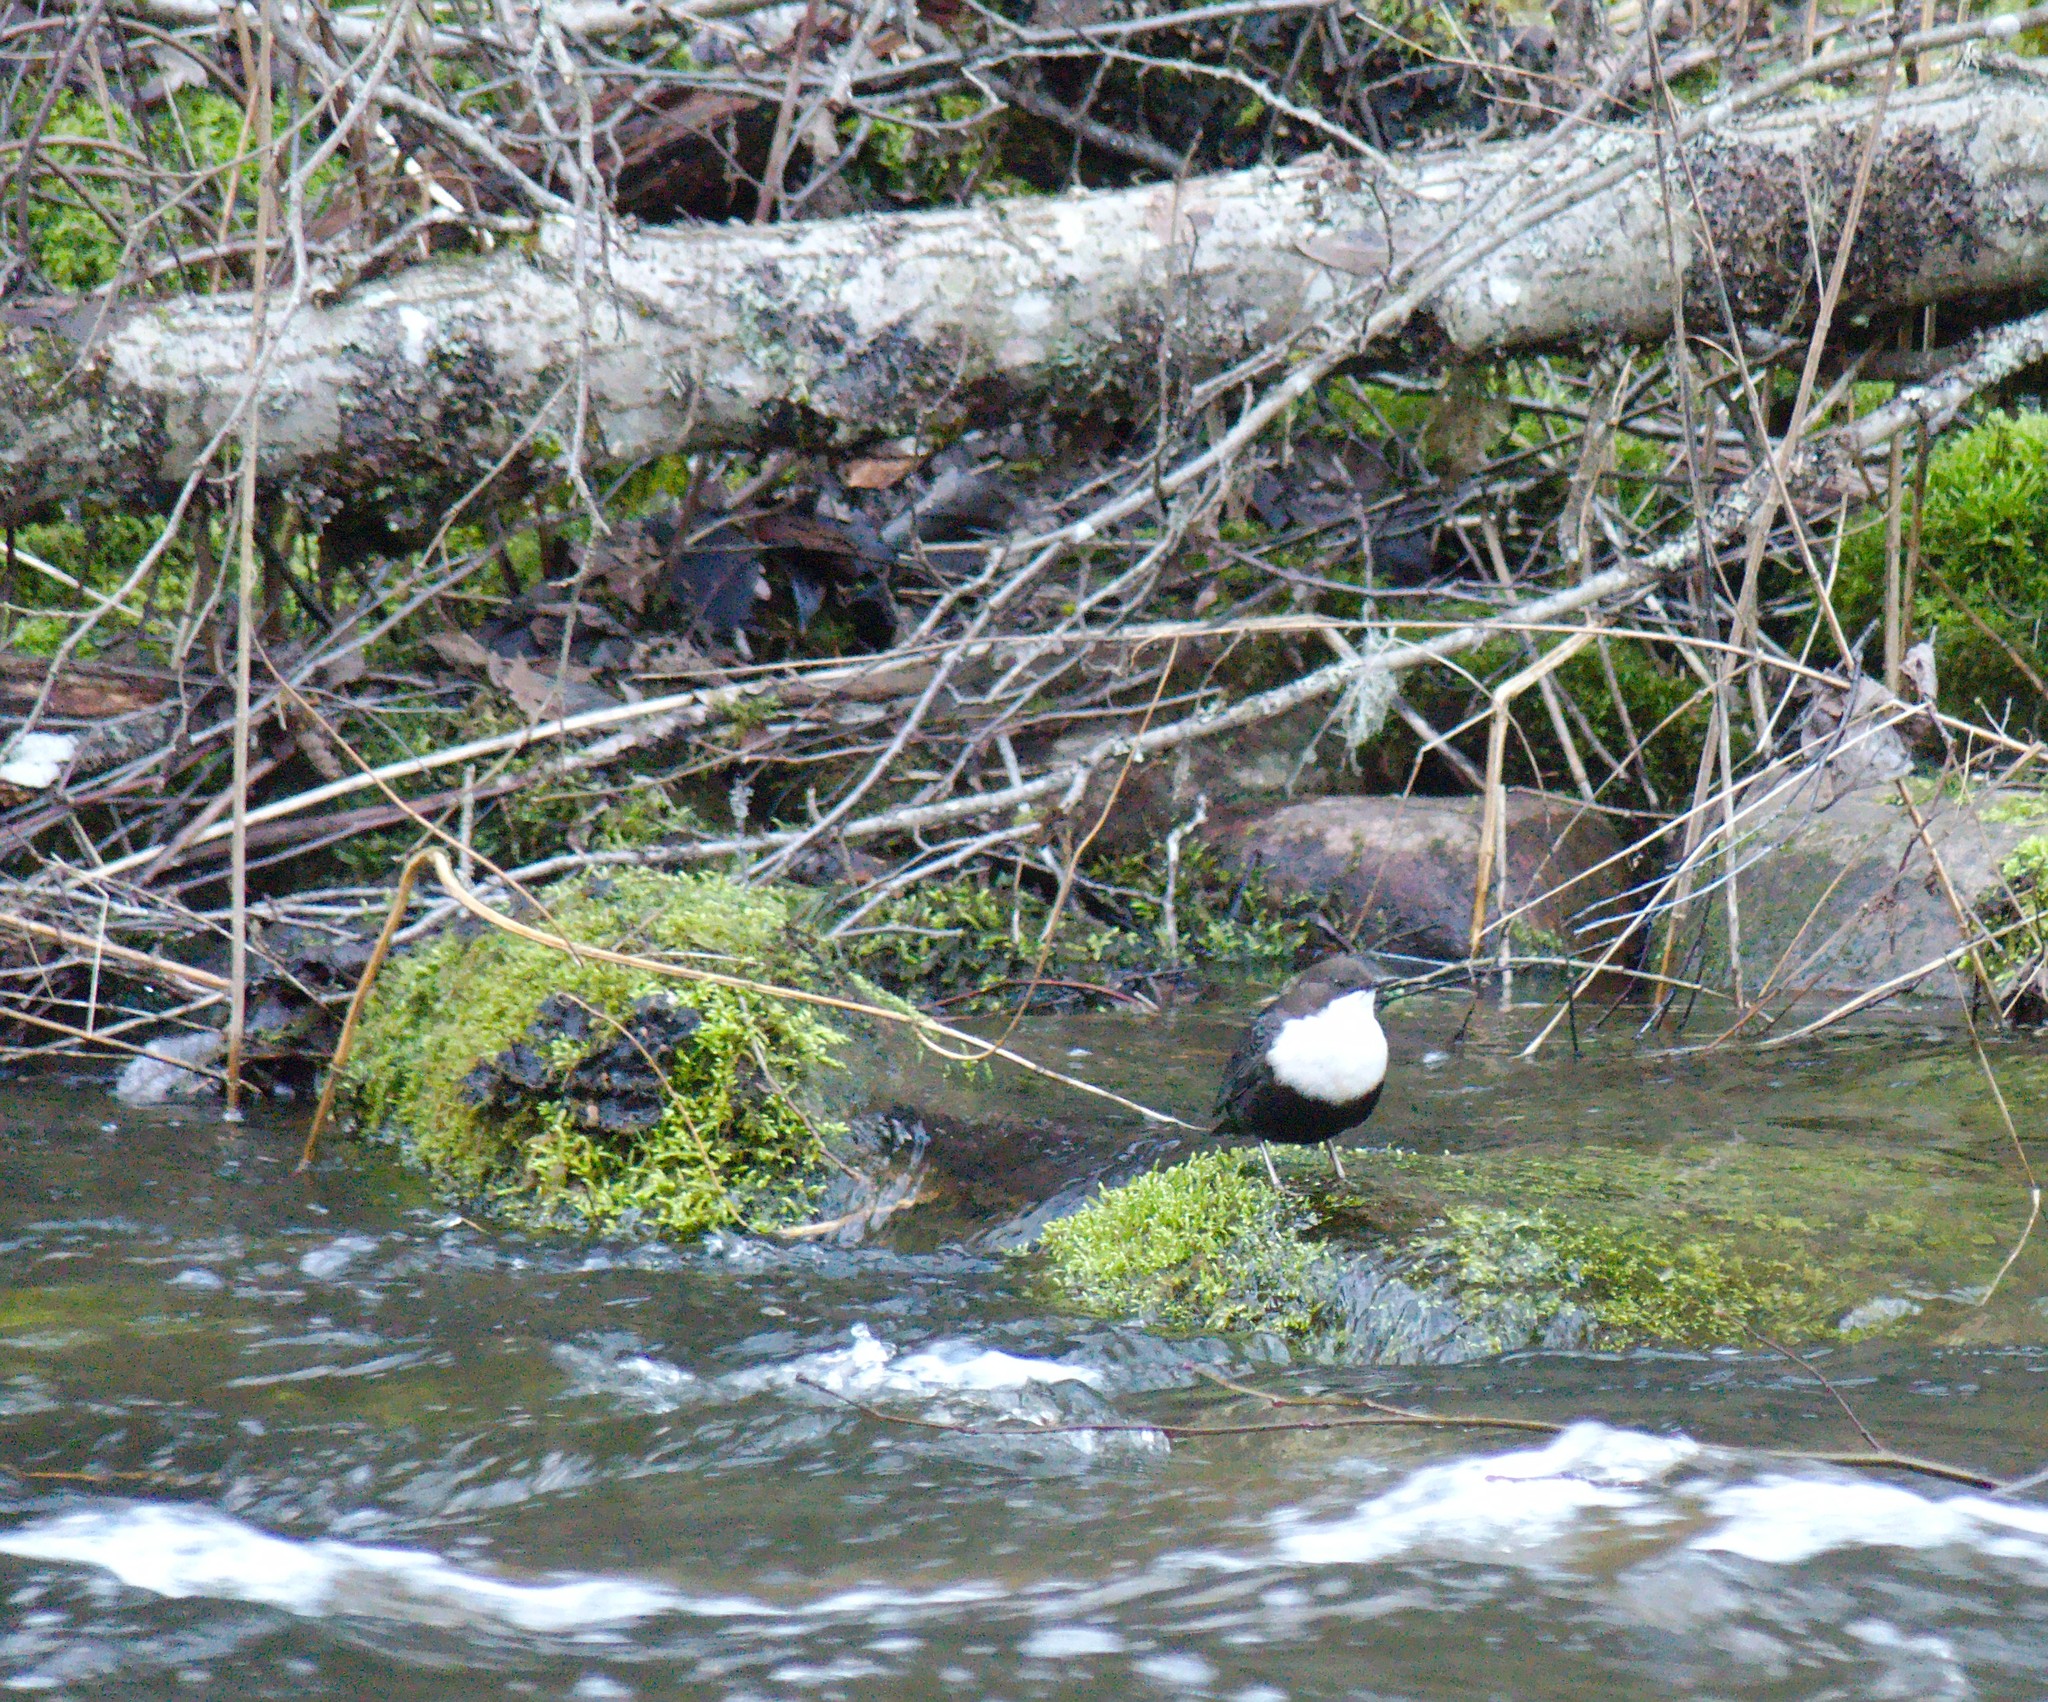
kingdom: Animalia
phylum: Chordata
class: Aves
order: Passeriformes
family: Cinclidae
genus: Cinclus
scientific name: Cinclus cinclus
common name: White-throated dipper
